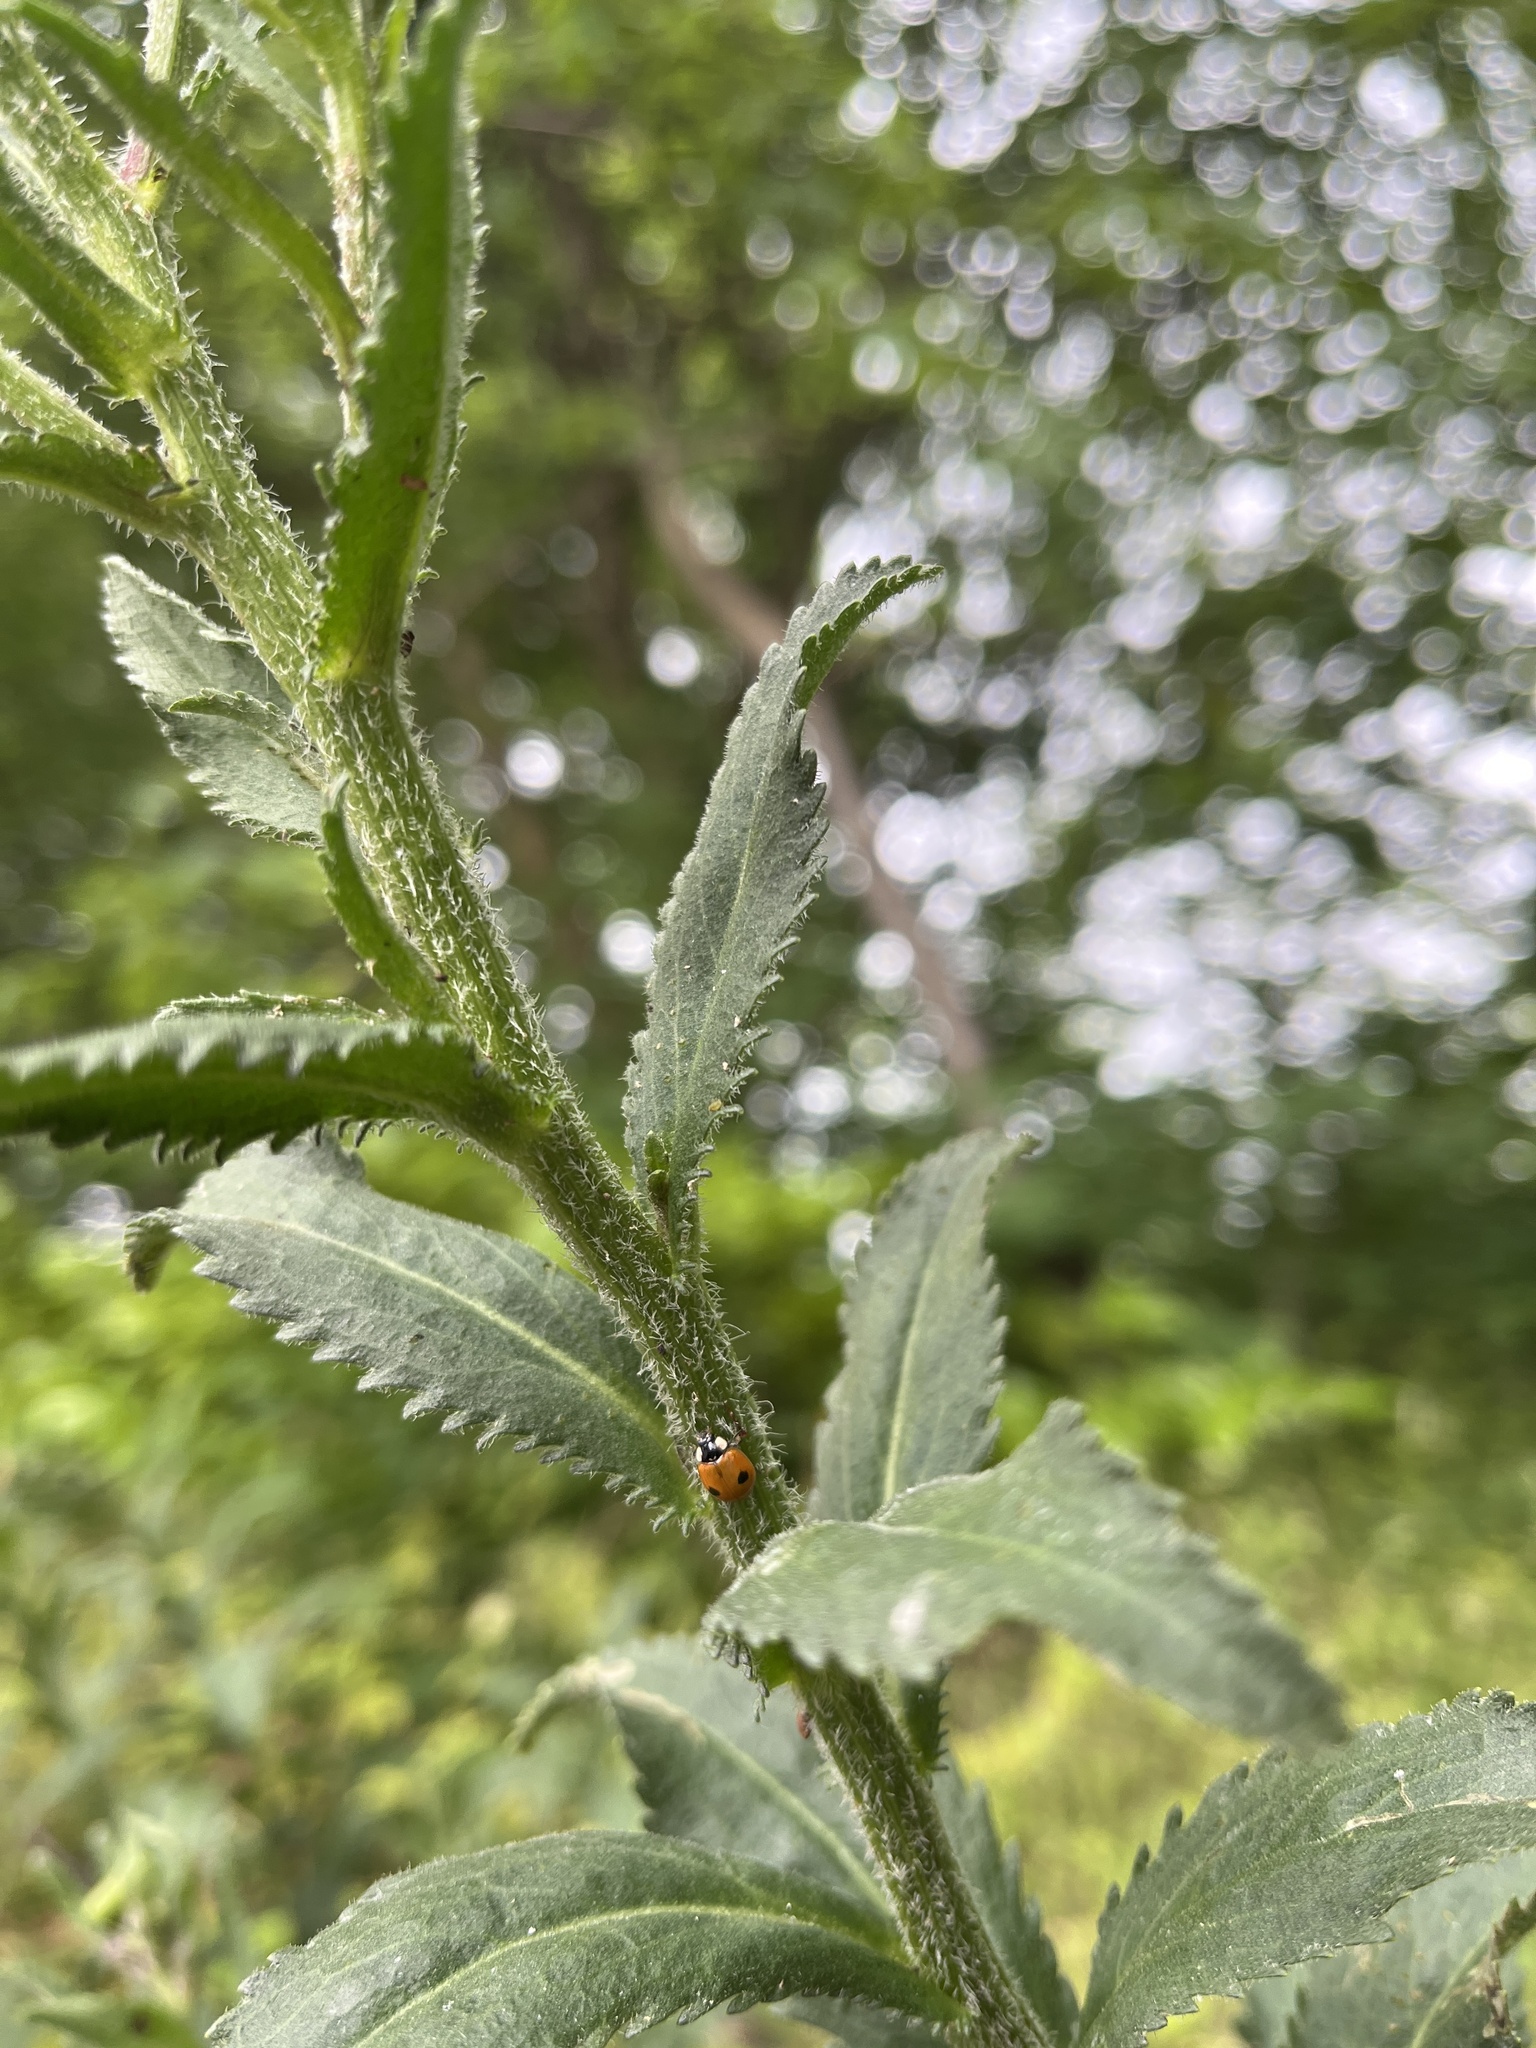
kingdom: Animalia
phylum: Arthropoda
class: Insecta
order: Coleoptera
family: Coccinellidae
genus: Adalia
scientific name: Adalia bipunctata
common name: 2-spot ladybird
